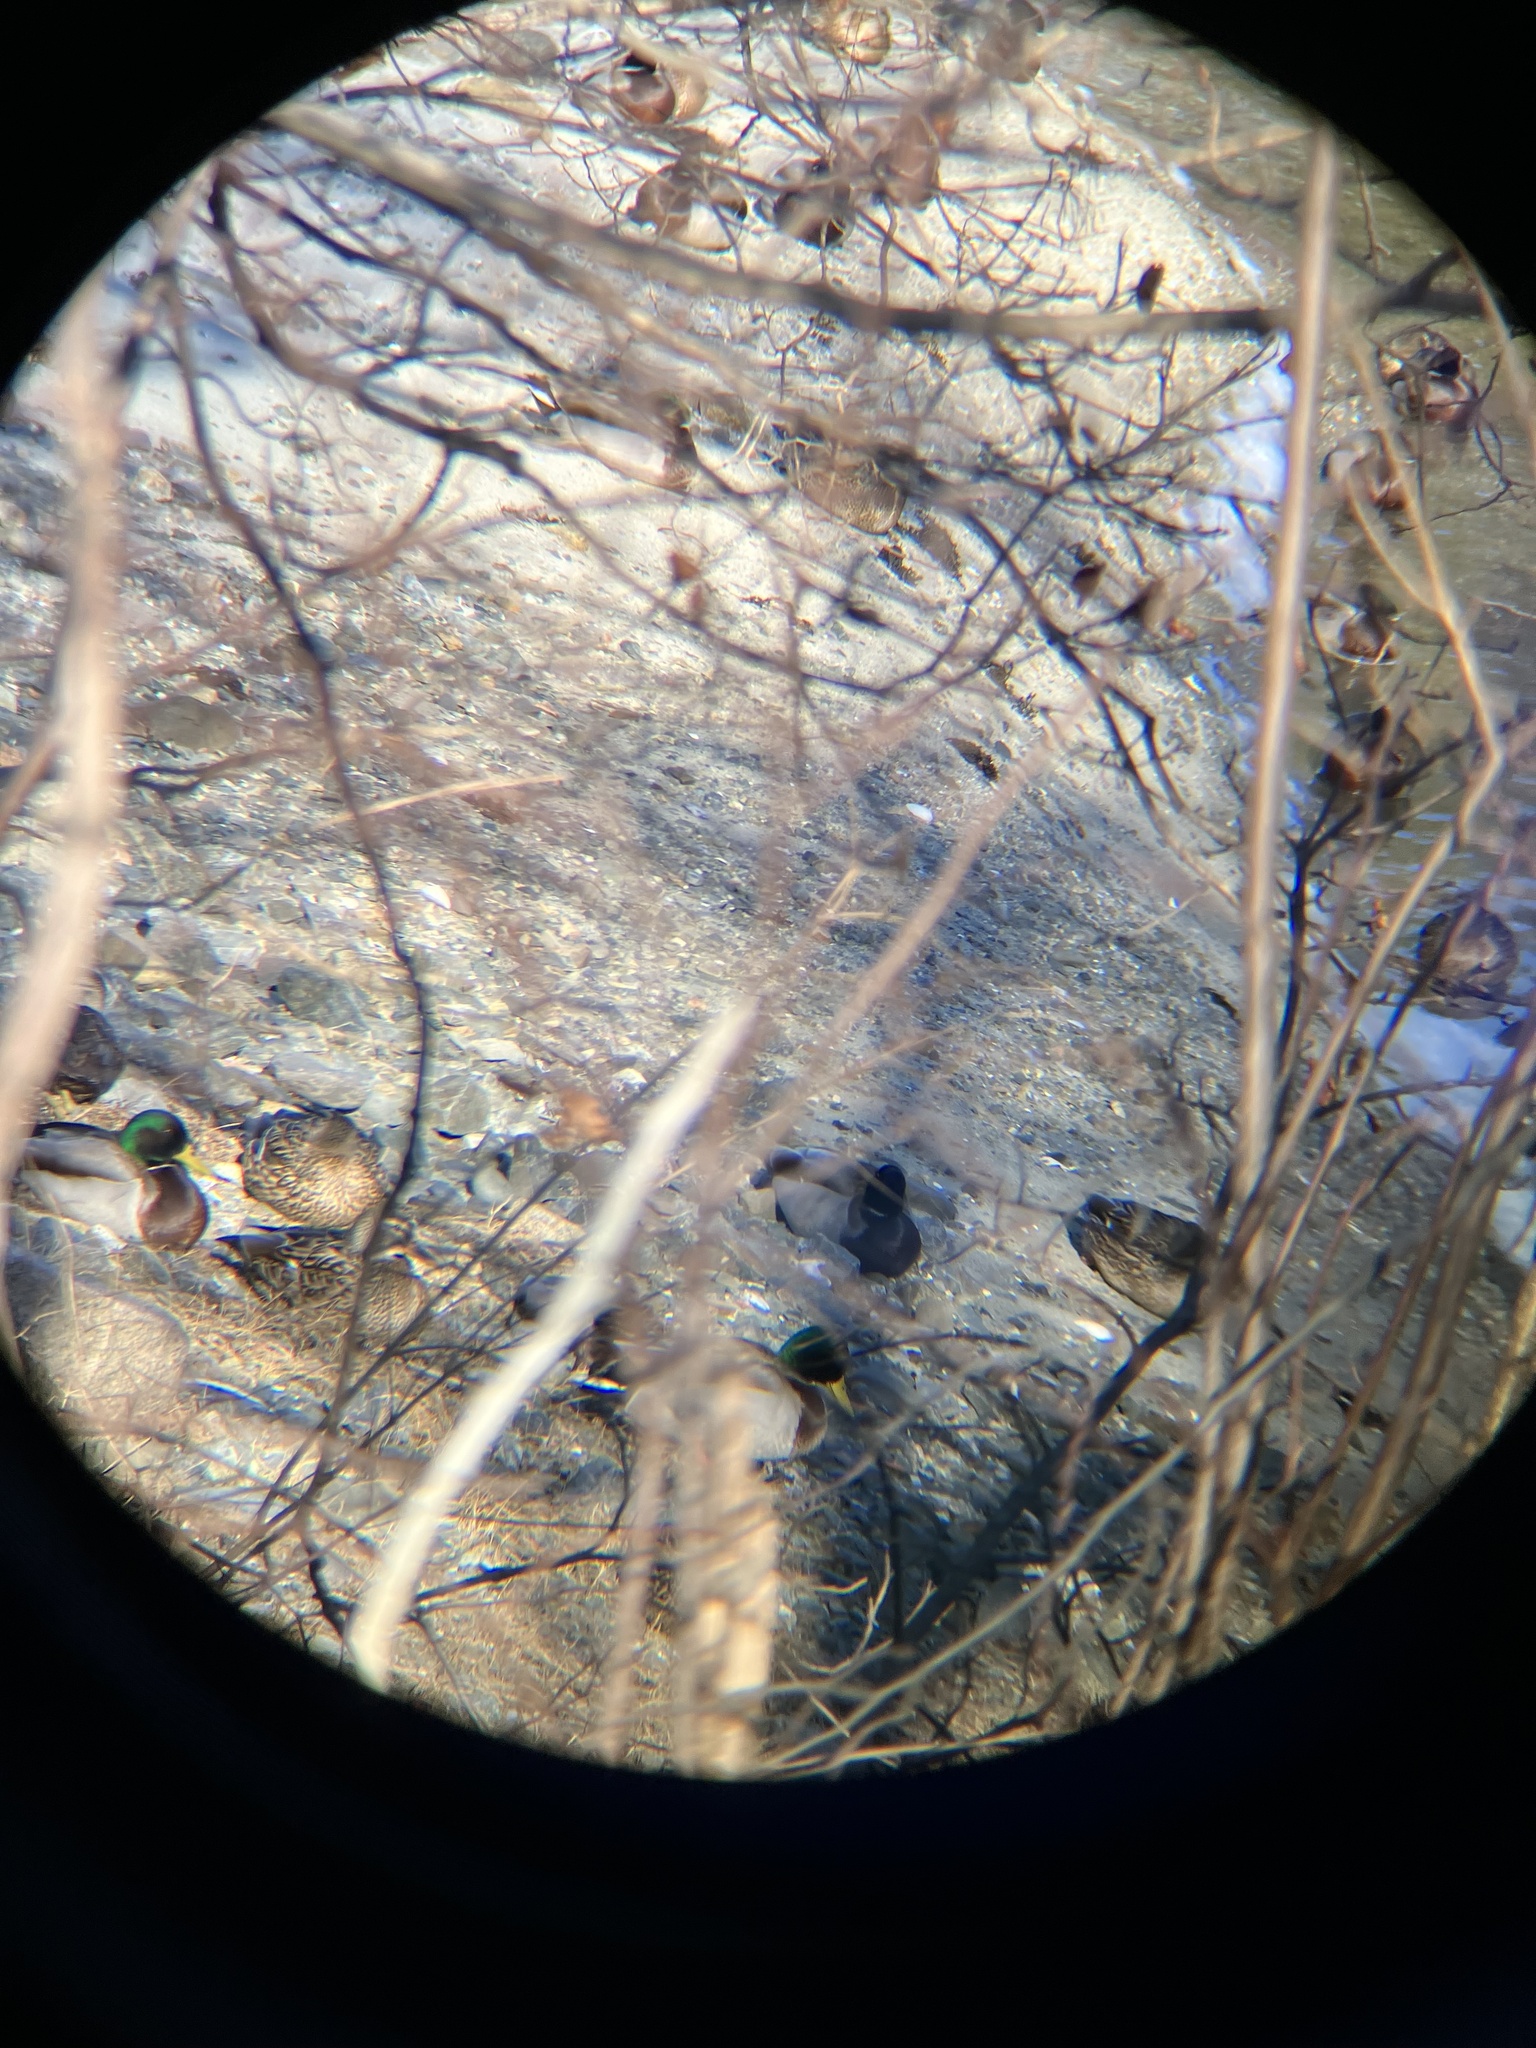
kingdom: Animalia
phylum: Chordata
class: Aves
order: Anseriformes
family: Anatidae
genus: Anas
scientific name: Anas platyrhynchos
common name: Mallard
